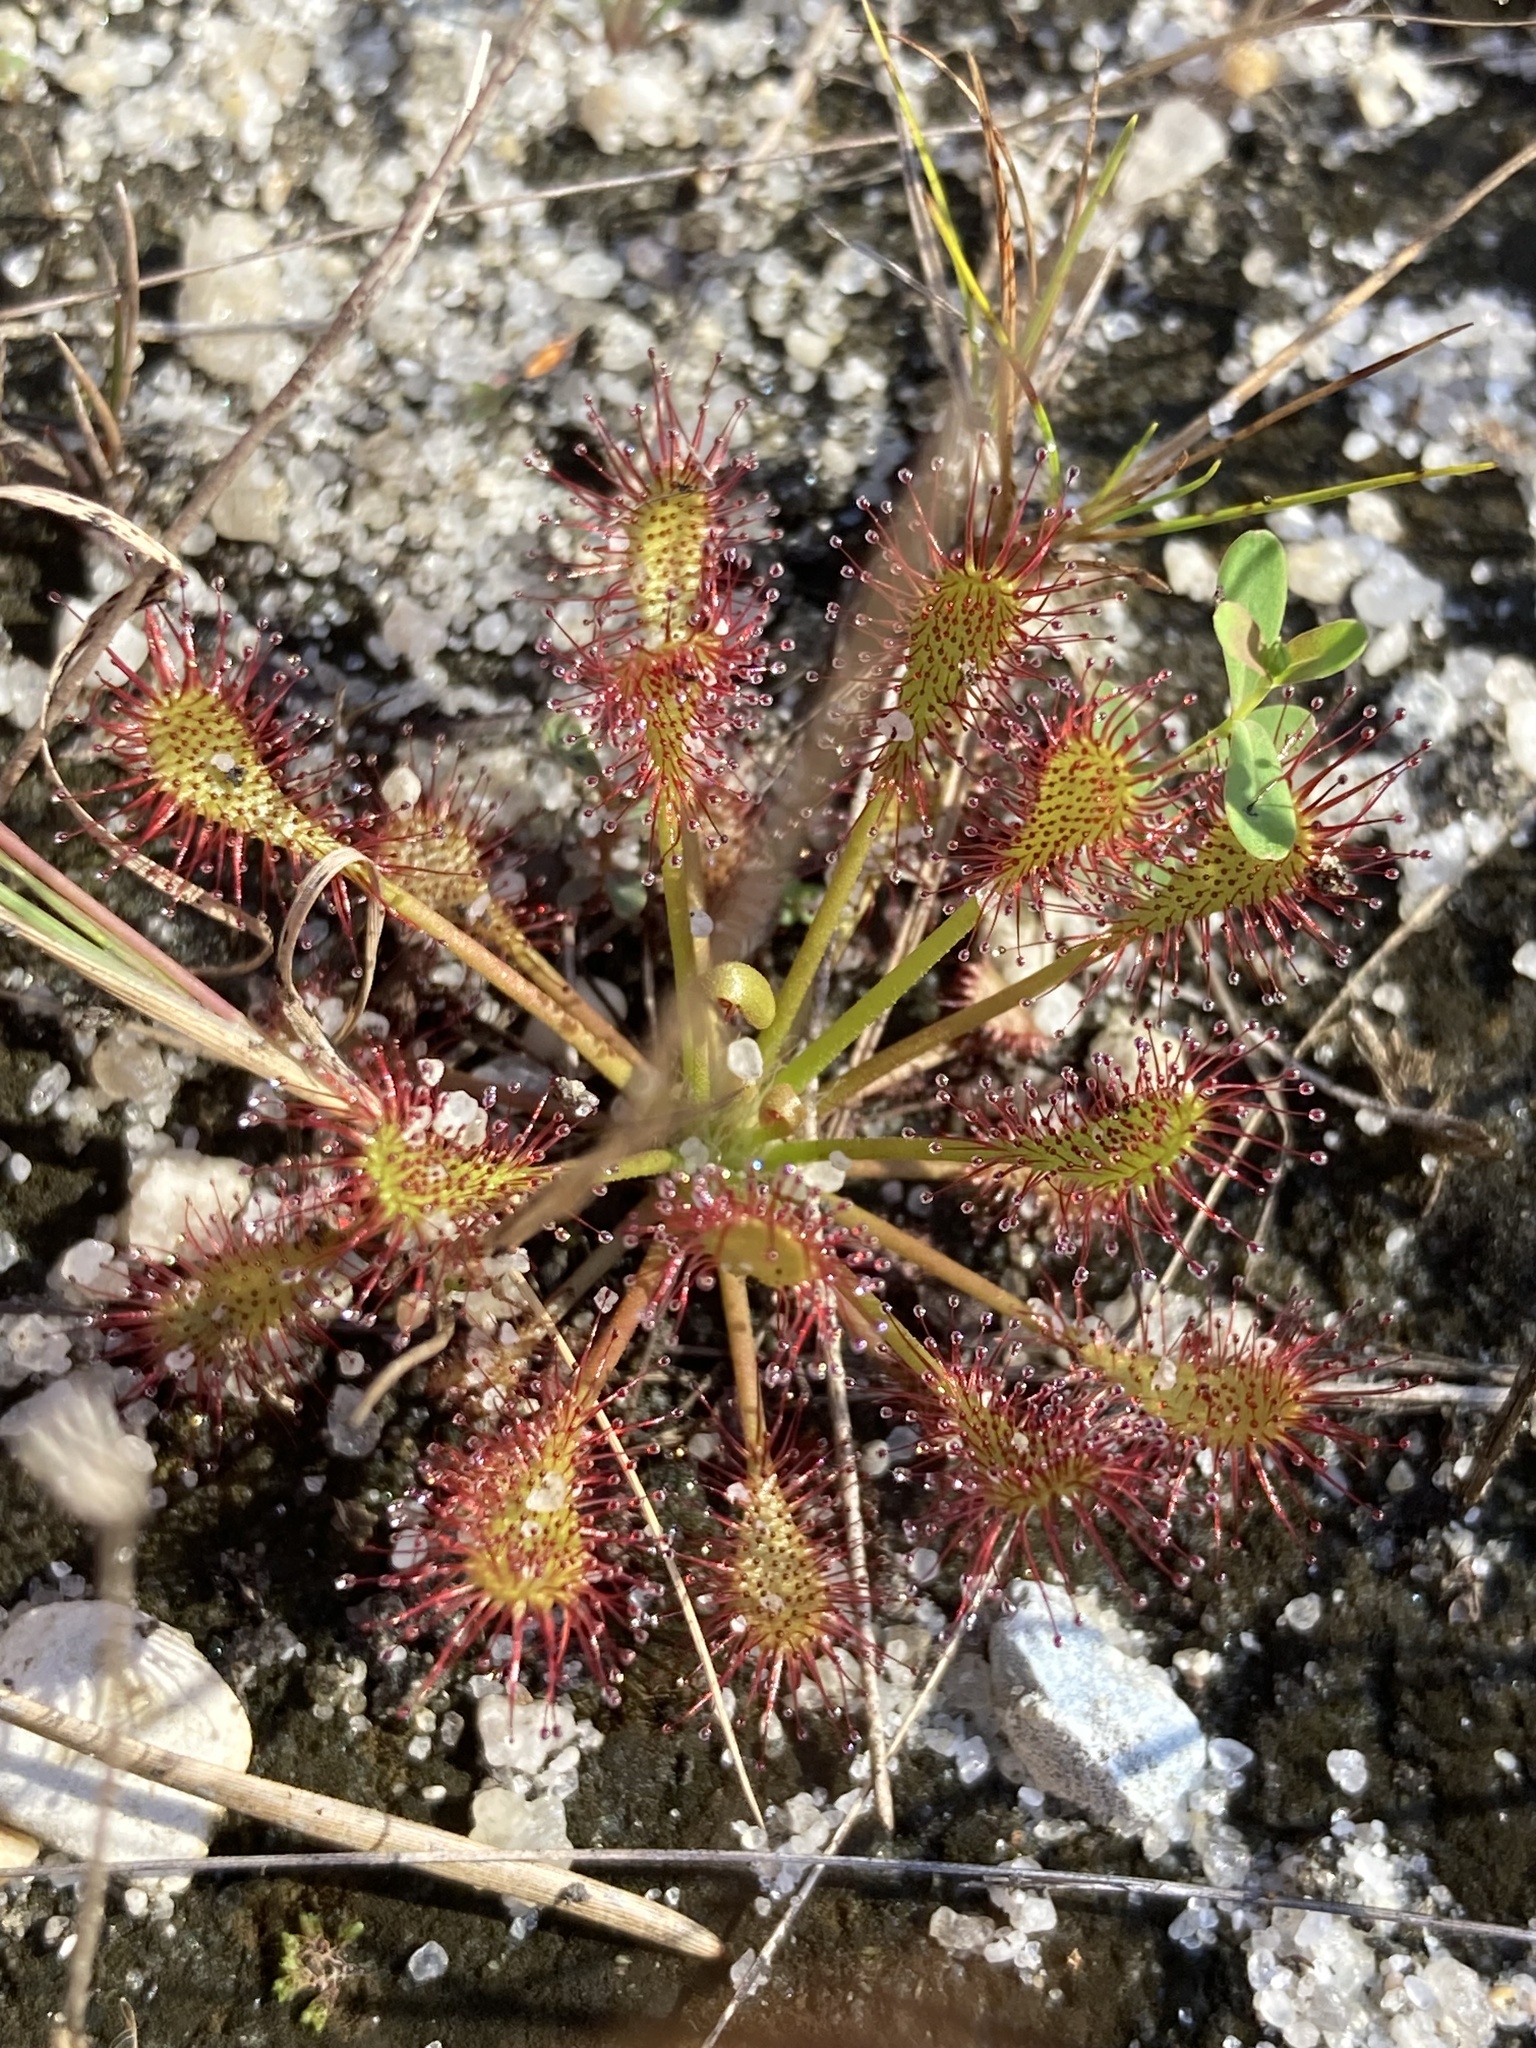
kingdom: Plantae
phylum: Tracheophyta
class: Magnoliopsida
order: Caryophyllales
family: Droseraceae
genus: Drosera
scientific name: Drosera intermedia
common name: Oblong-leaved sundew
